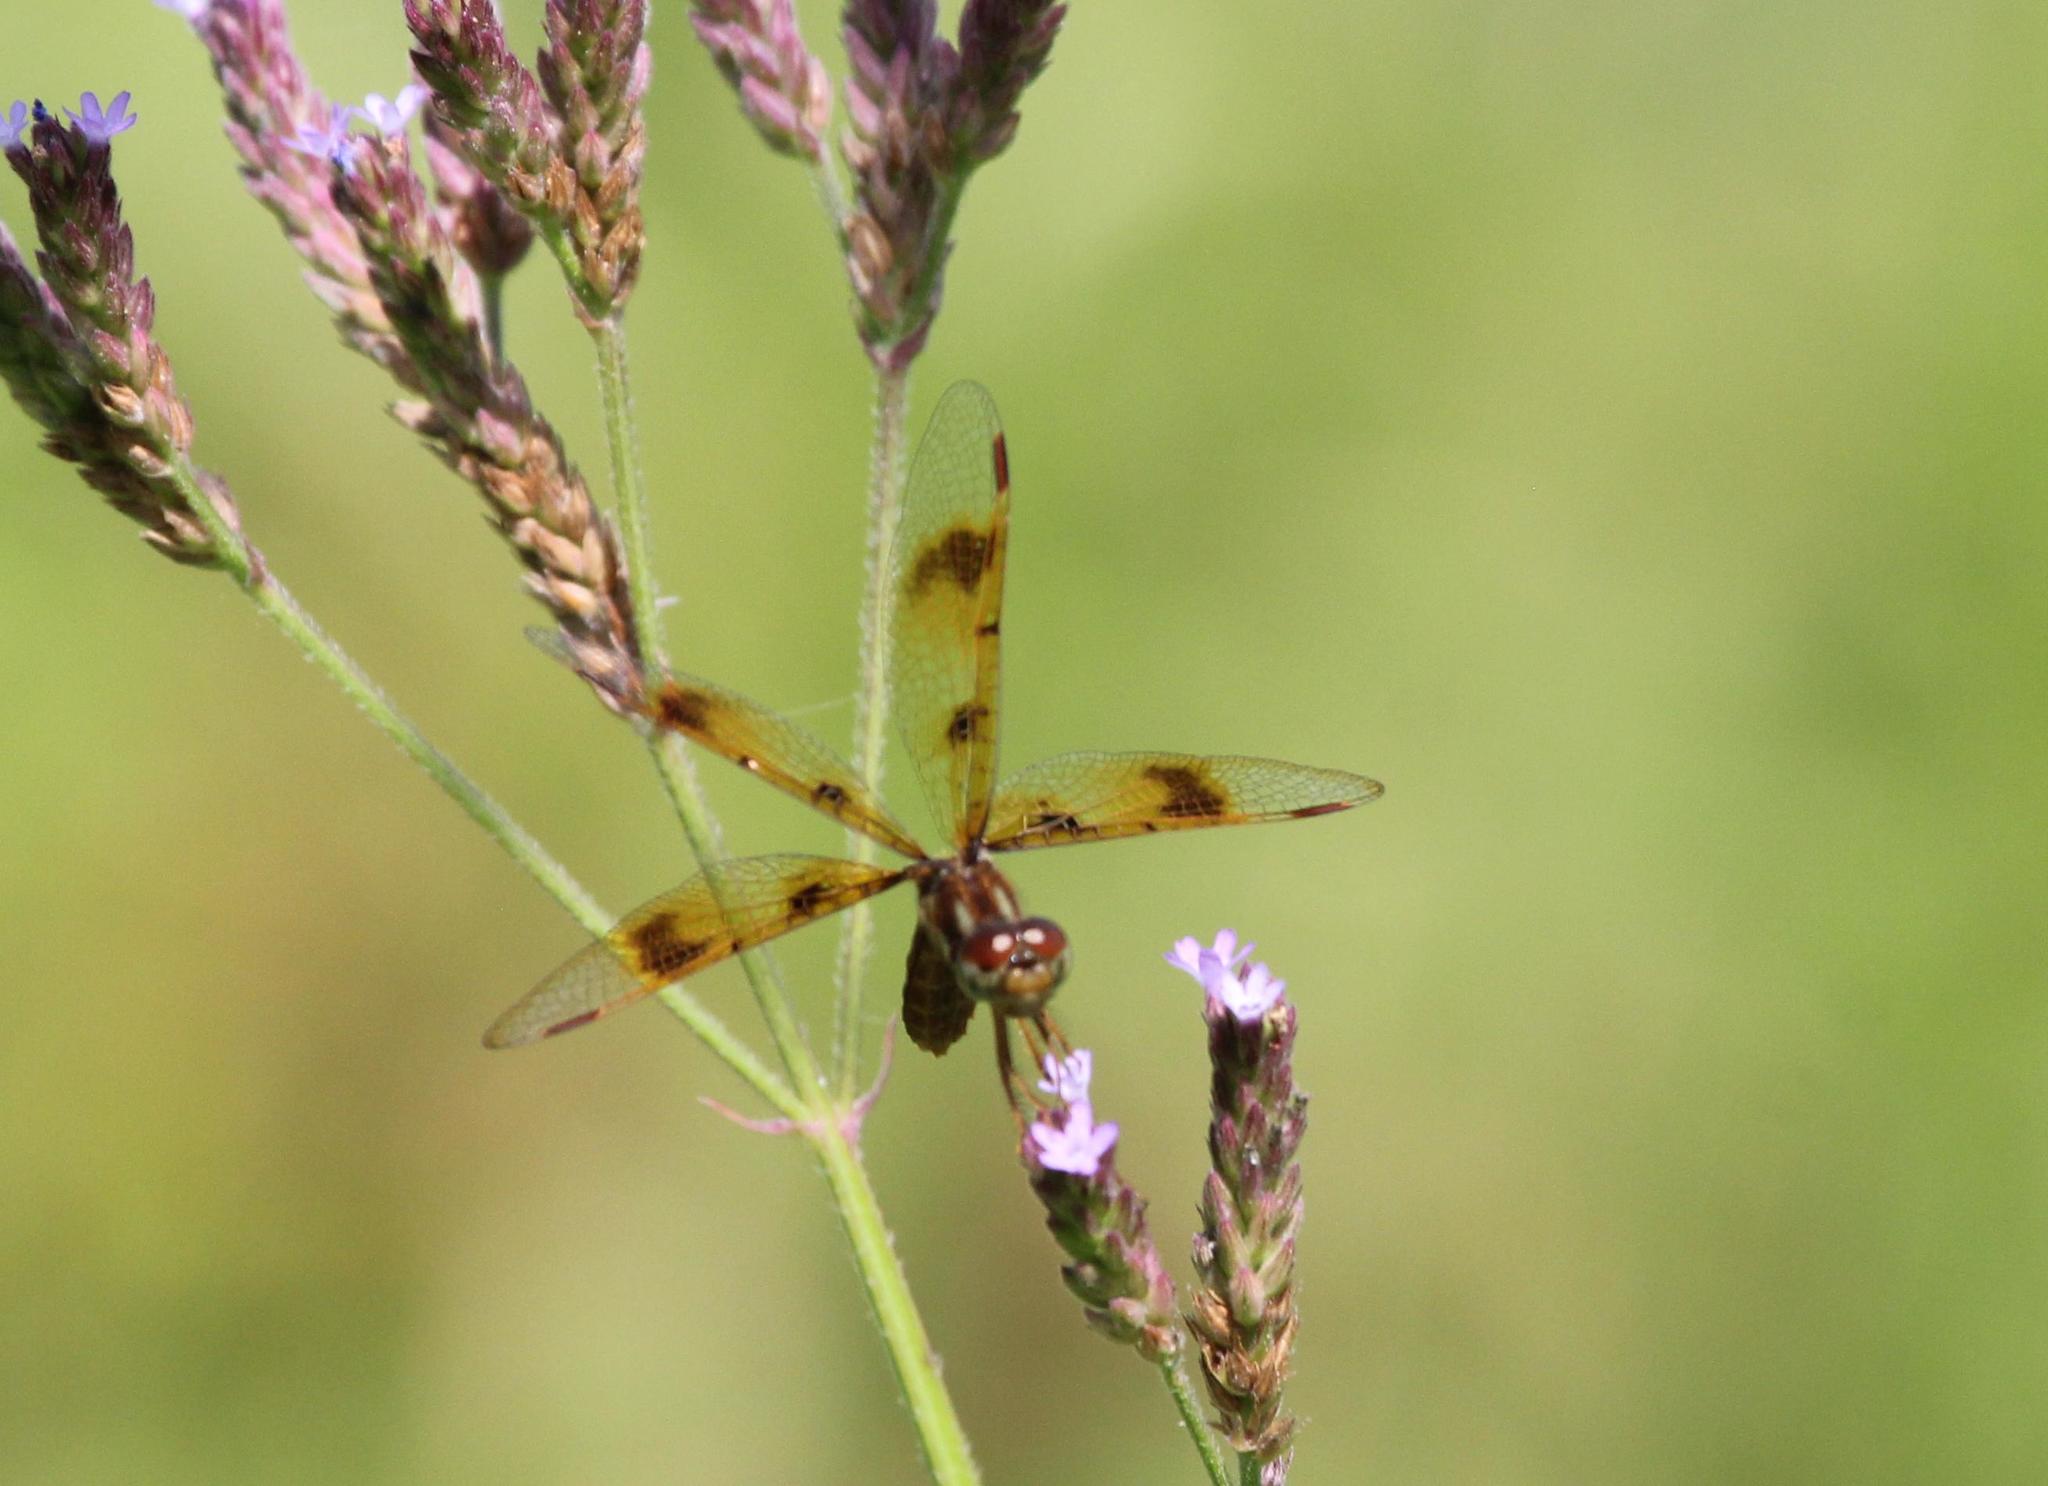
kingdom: Animalia
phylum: Arthropoda
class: Insecta
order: Odonata
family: Libellulidae
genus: Perithemis
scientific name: Perithemis tenera
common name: Eastern amberwing
